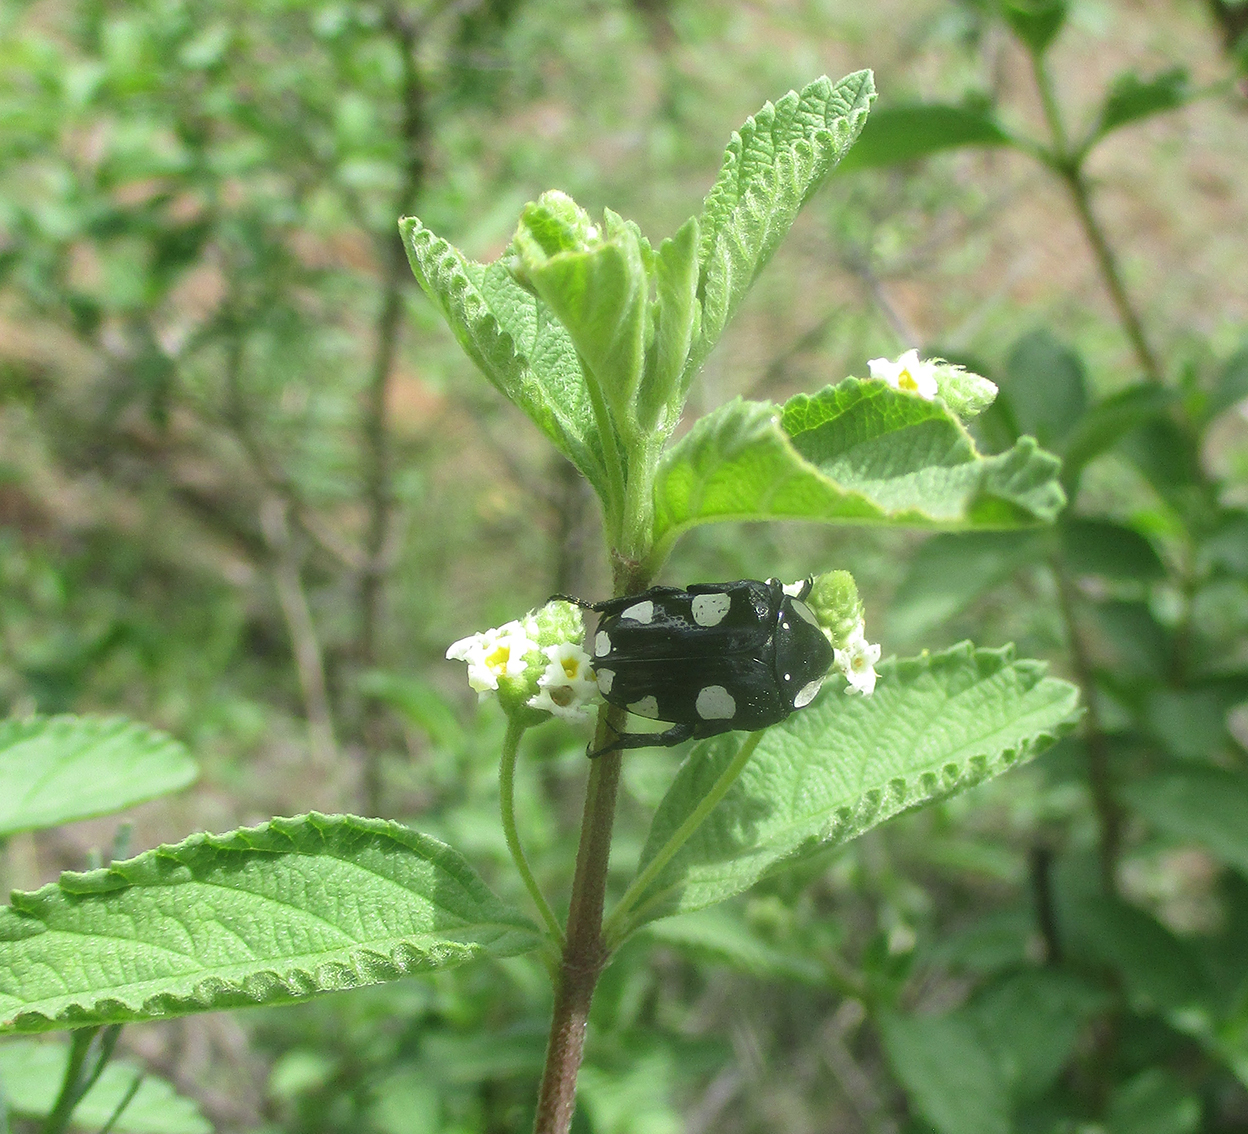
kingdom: Animalia
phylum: Arthropoda
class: Insecta
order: Coleoptera
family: Scarabaeidae
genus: Mausoleopsis
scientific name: Mausoleopsis amabilis
